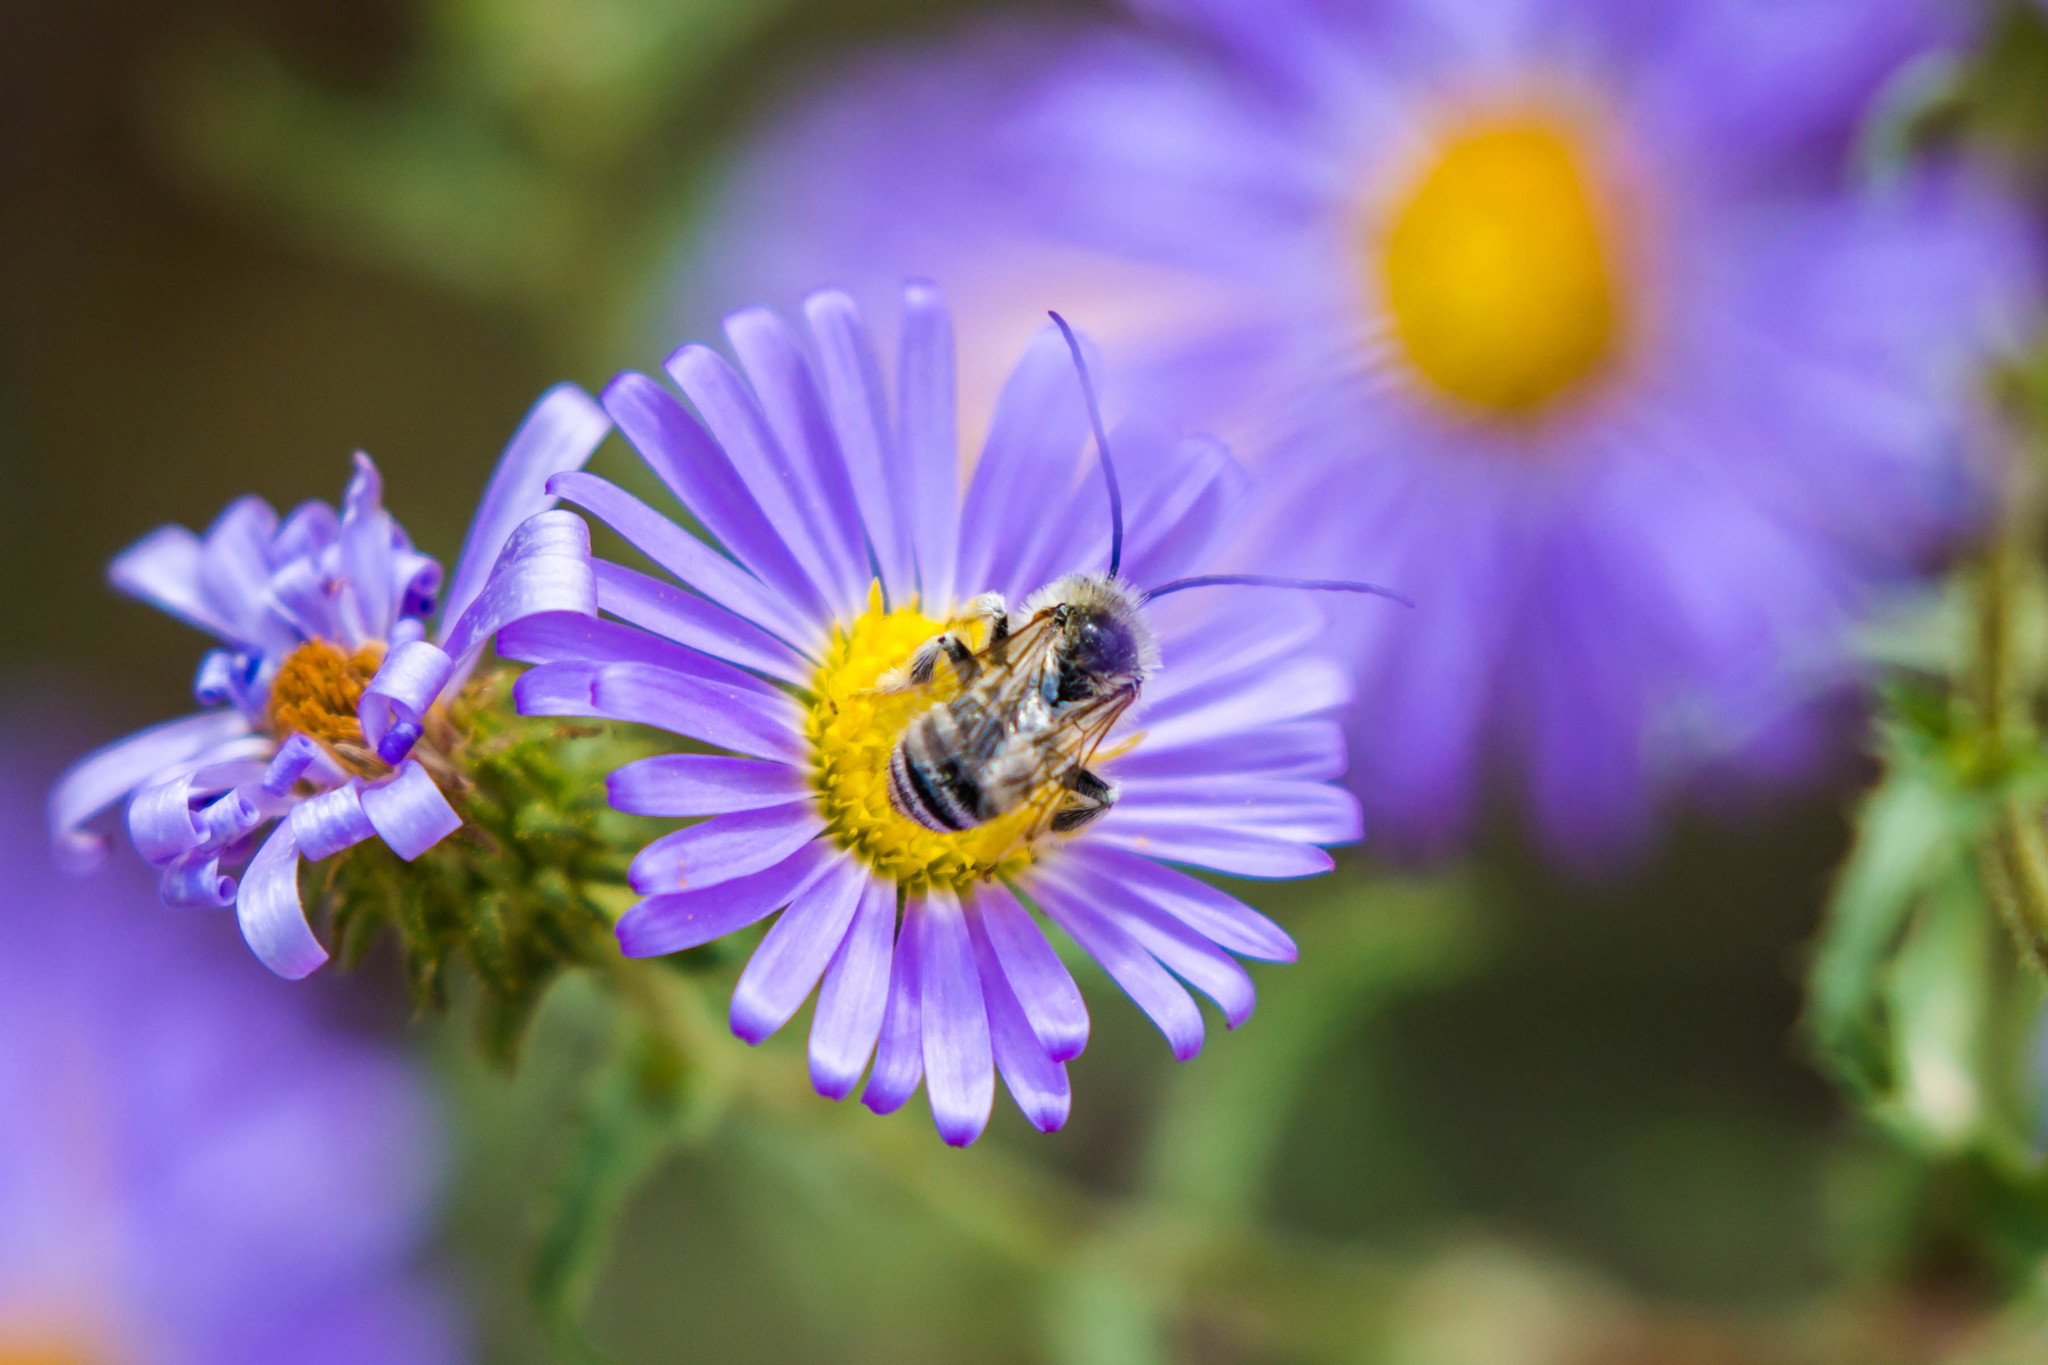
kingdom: Animalia
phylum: Arthropoda
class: Insecta
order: Hymenoptera
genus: Eumelissodes
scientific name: Eumelissodes
